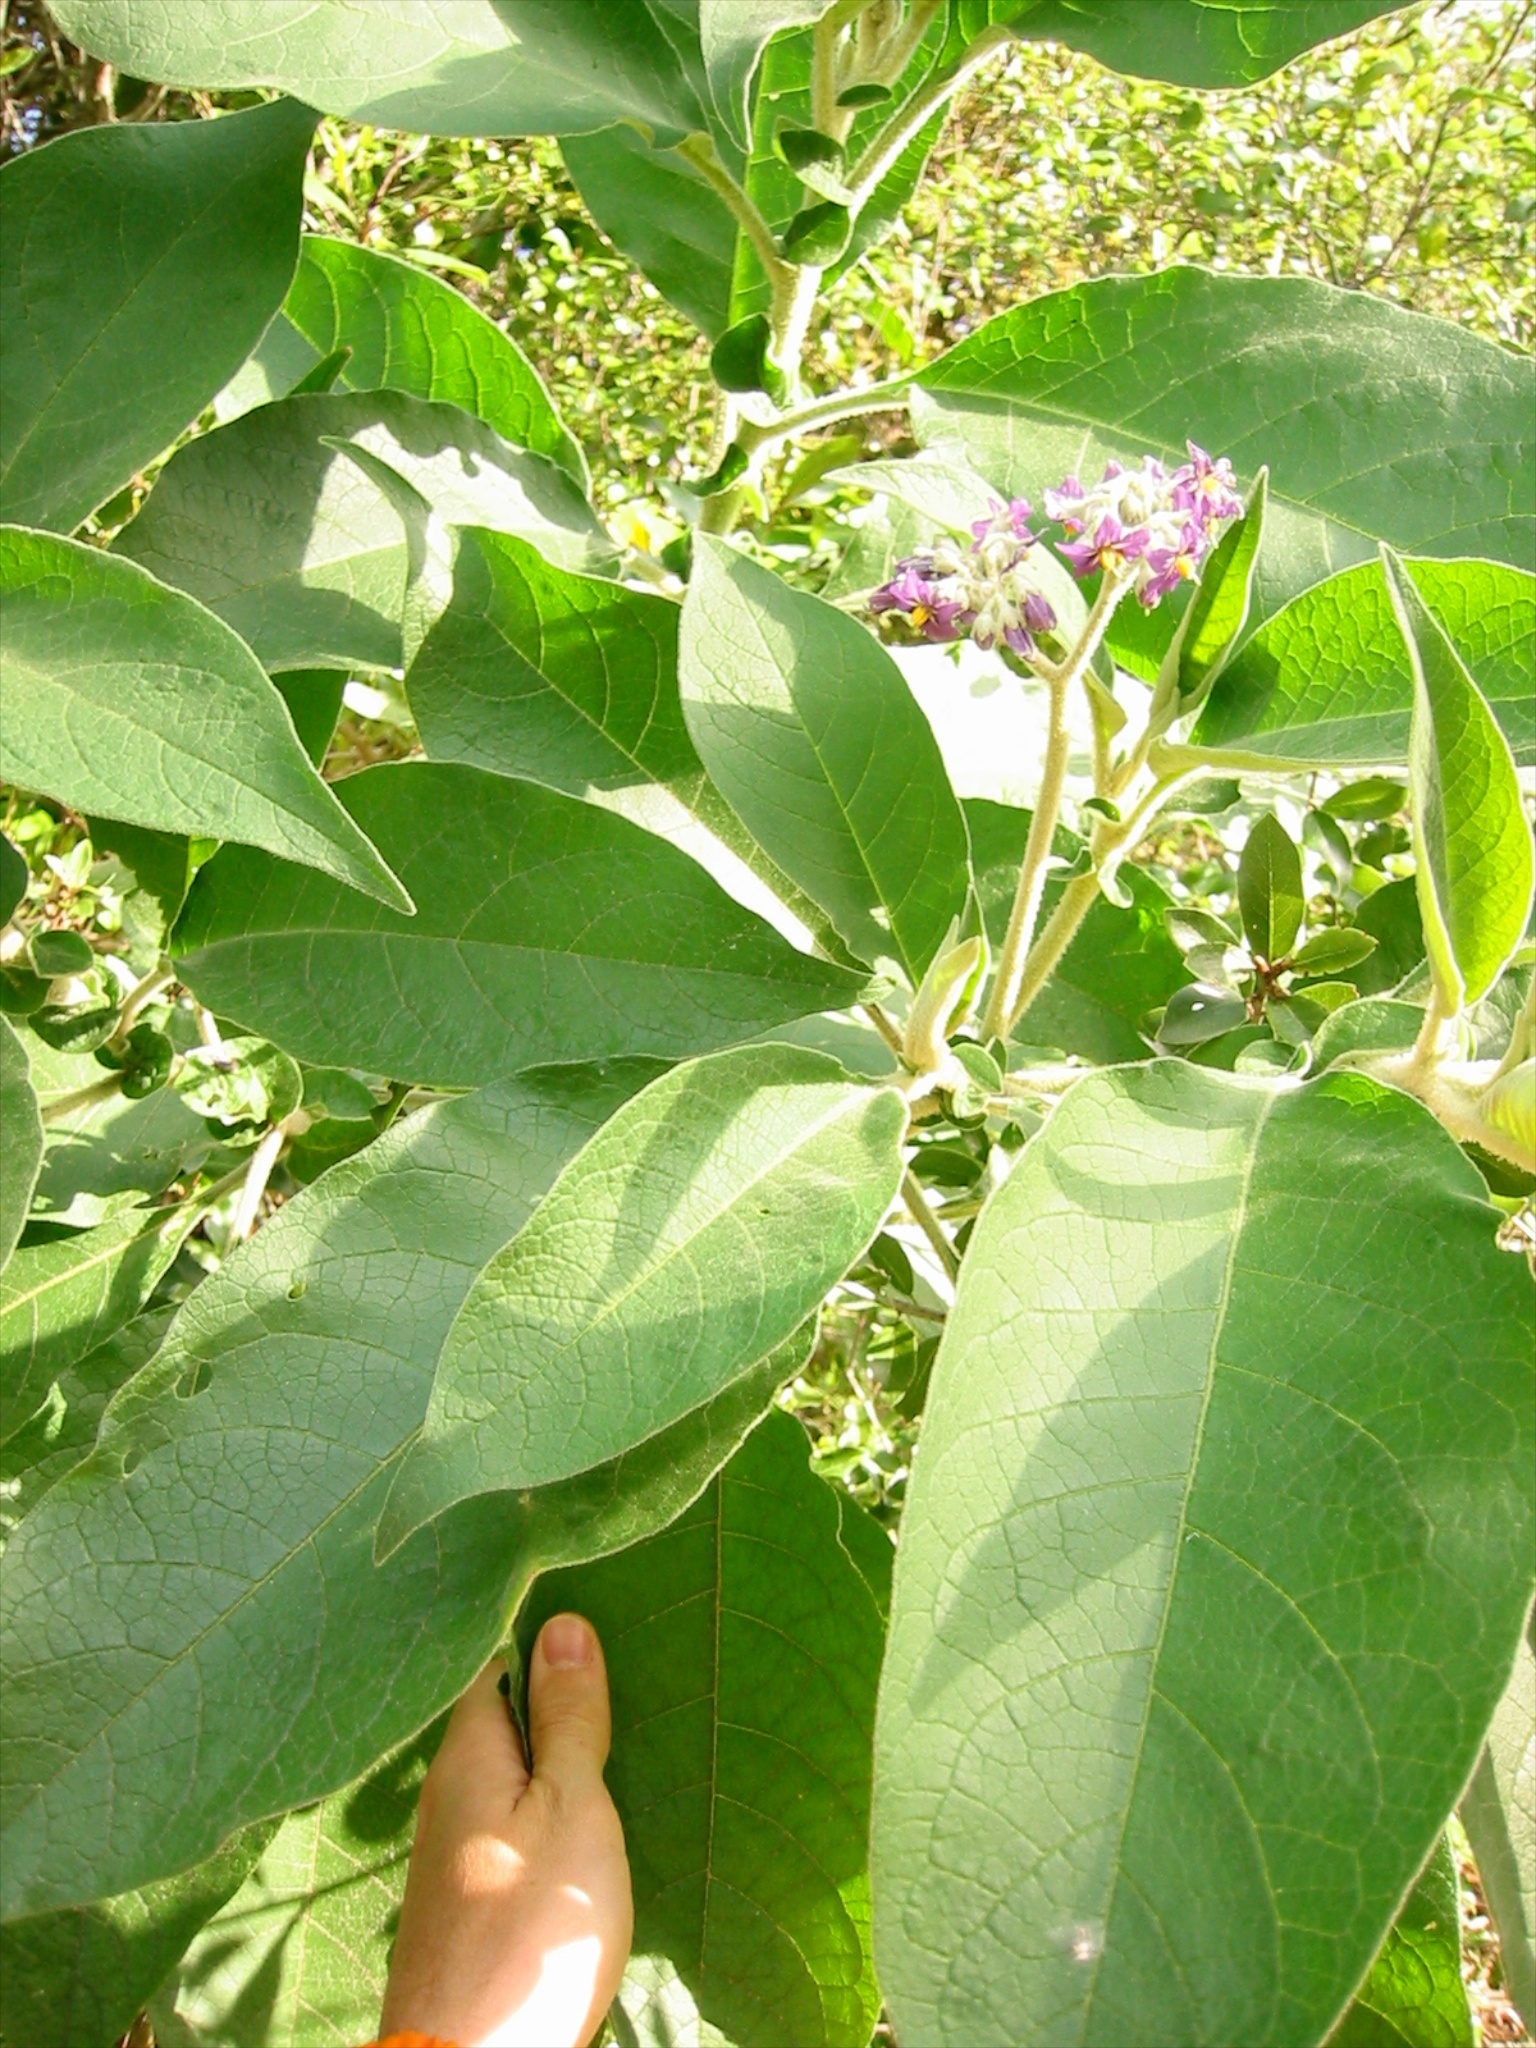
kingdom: Plantae
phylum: Tracheophyta
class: Magnoliopsida
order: Solanales
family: Solanaceae
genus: Solanum
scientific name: Solanum mauritianum
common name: Earleaf nightshade
